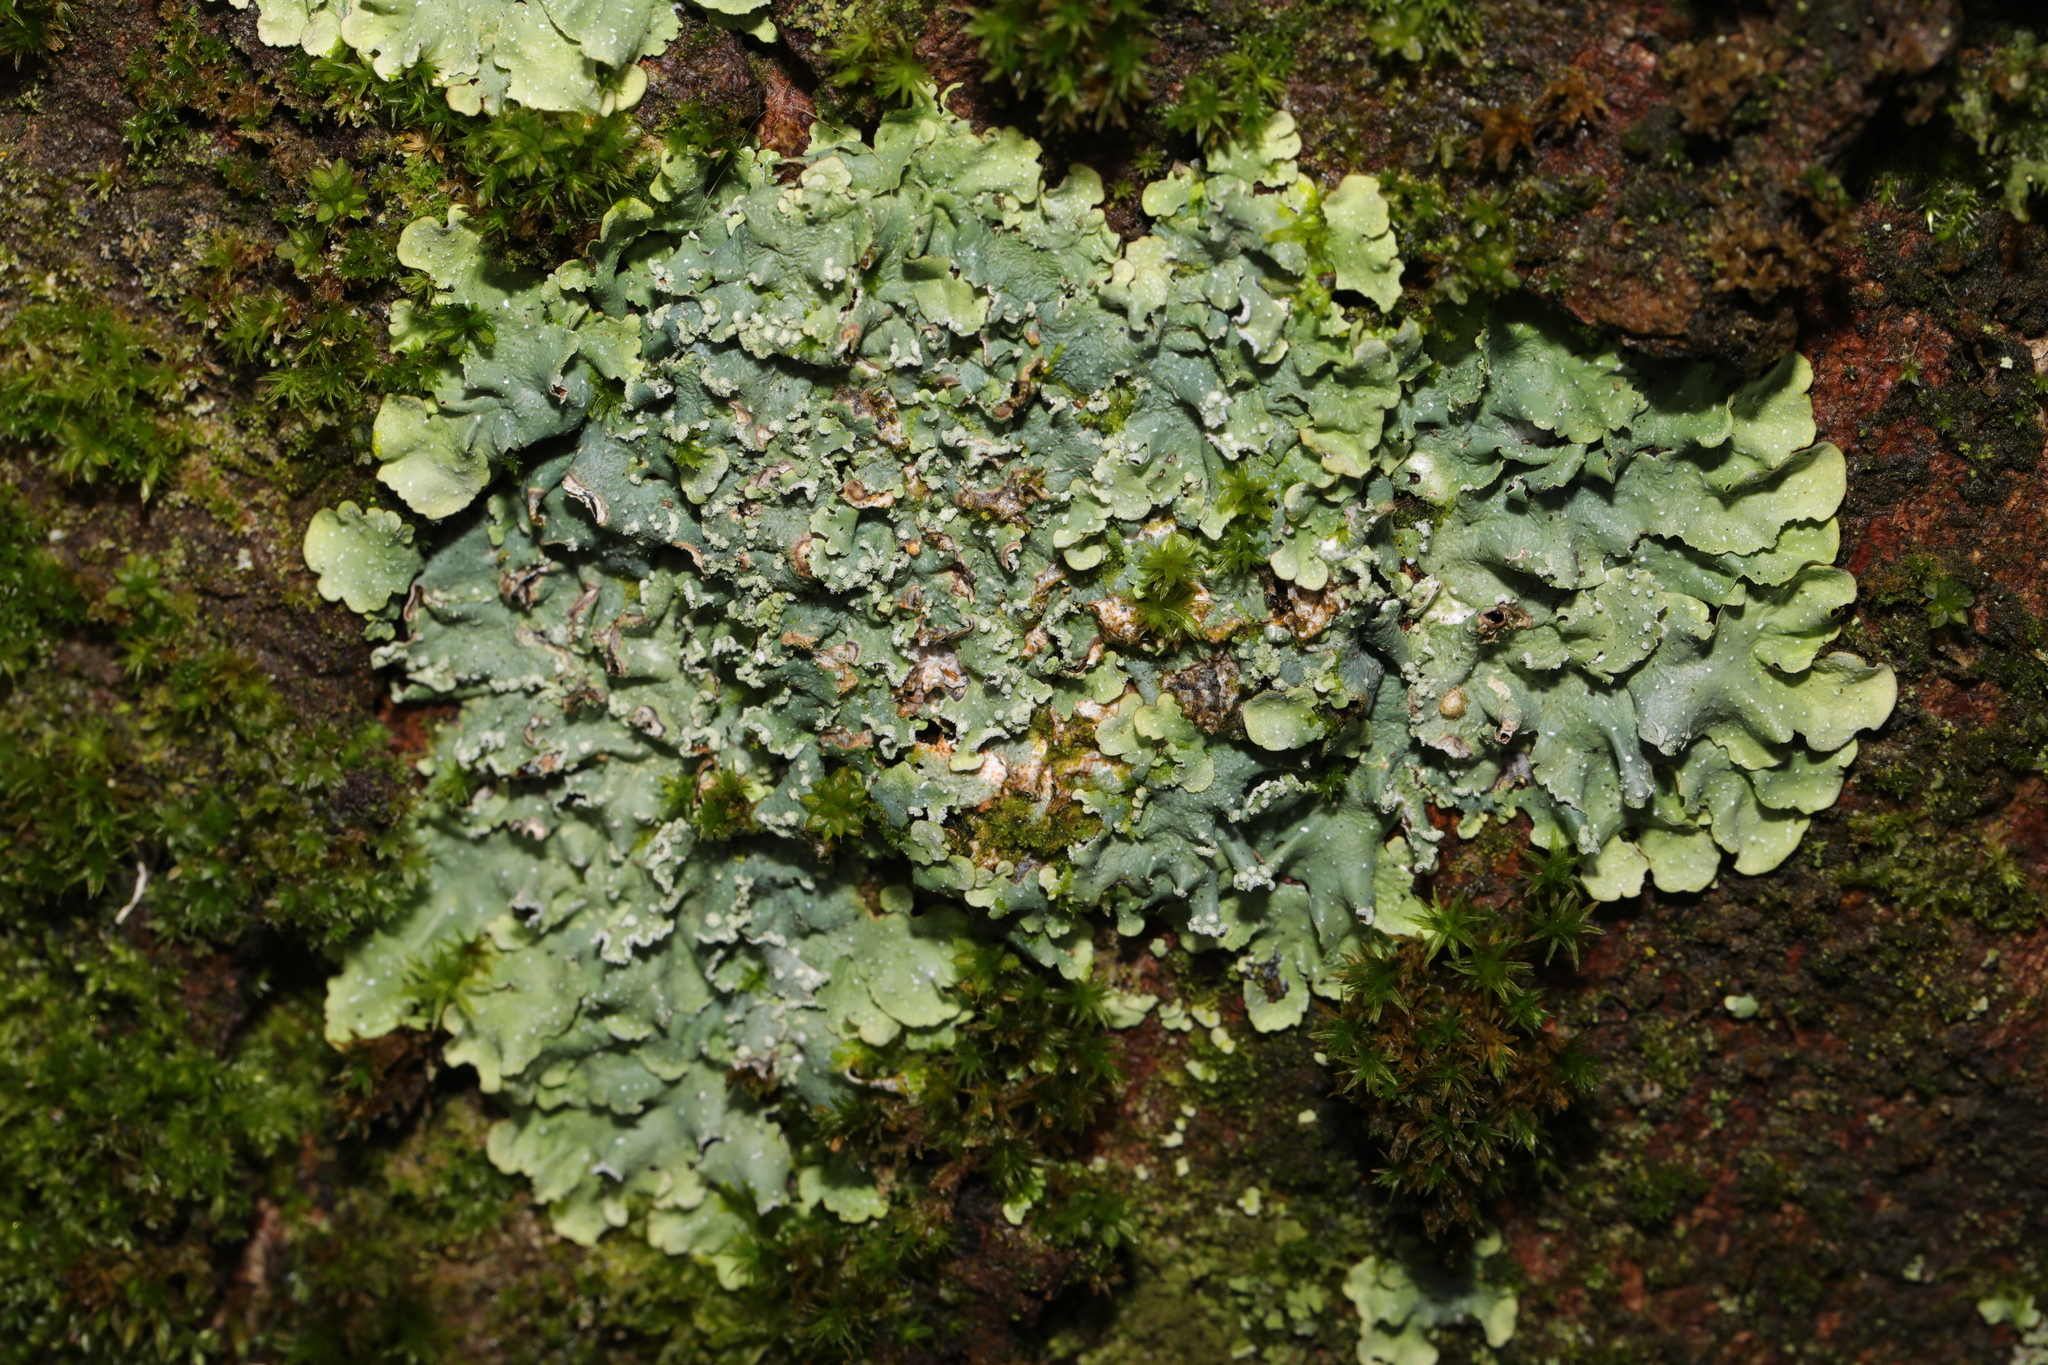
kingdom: Fungi
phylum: Ascomycota
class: Lecanoromycetes
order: Lecanorales
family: Parmeliaceae
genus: Punctelia
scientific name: Punctelia jeckeri
